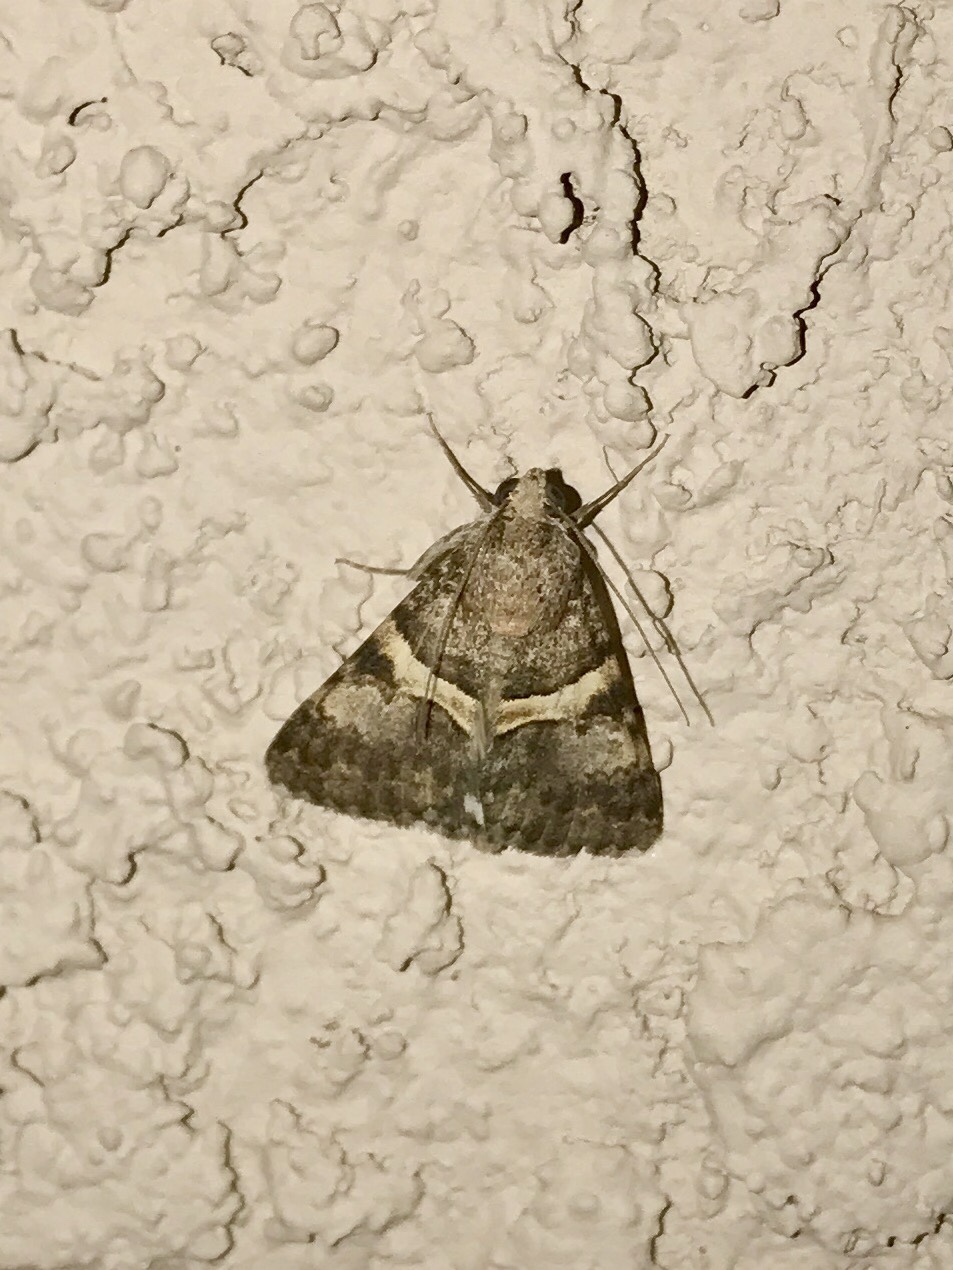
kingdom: Animalia
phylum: Arthropoda
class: Insecta
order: Lepidoptera
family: Erebidae
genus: Melipotis
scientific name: Melipotis jucunda
